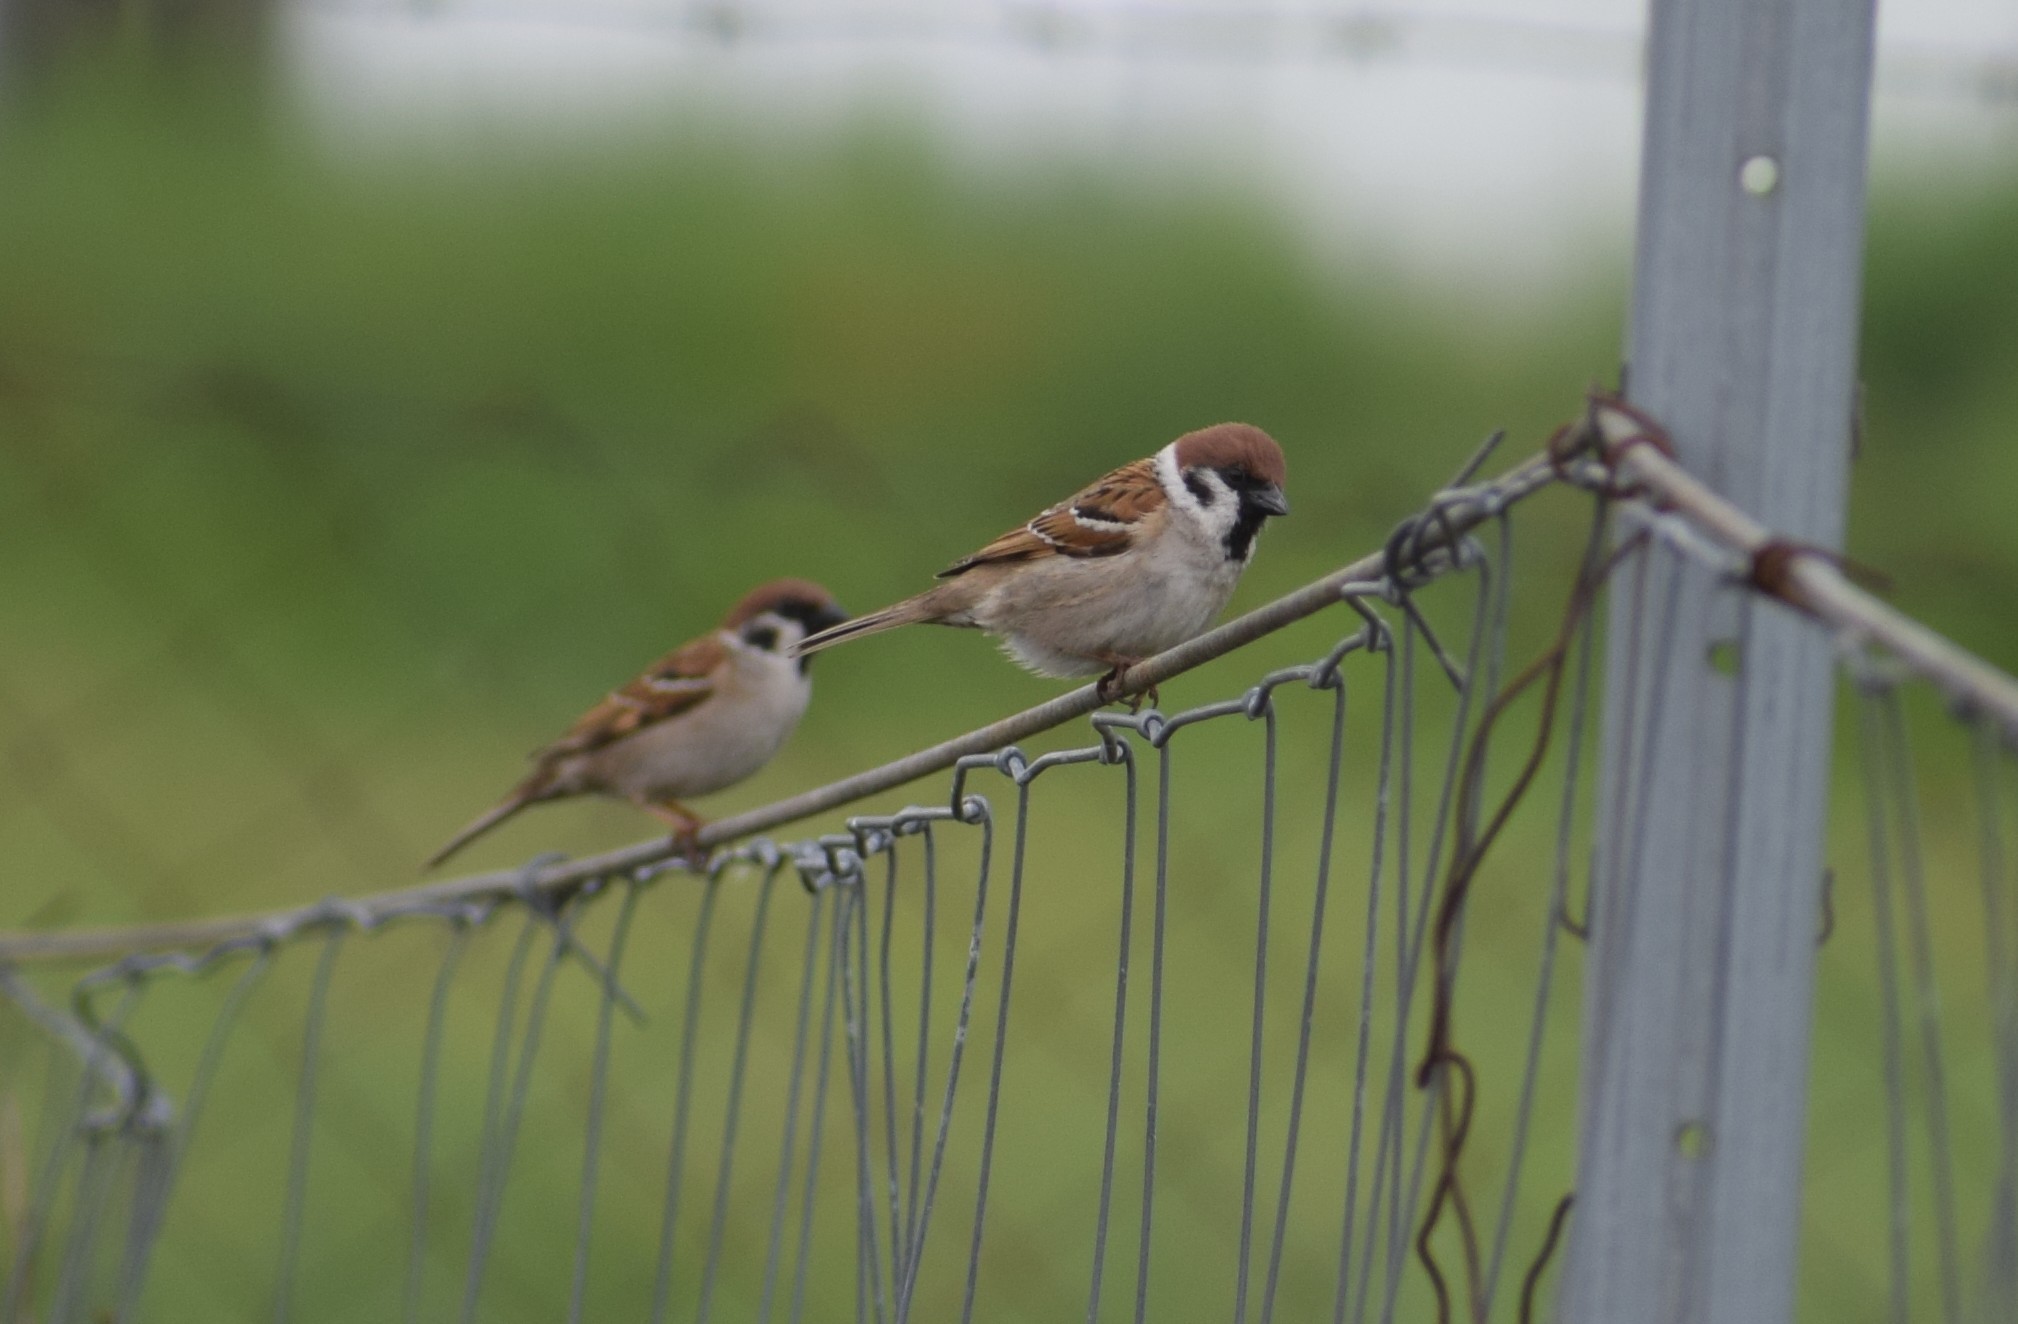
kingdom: Animalia
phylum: Chordata
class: Aves
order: Passeriformes
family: Passeridae
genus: Passer
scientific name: Passer montanus
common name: Eurasian tree sparrow
